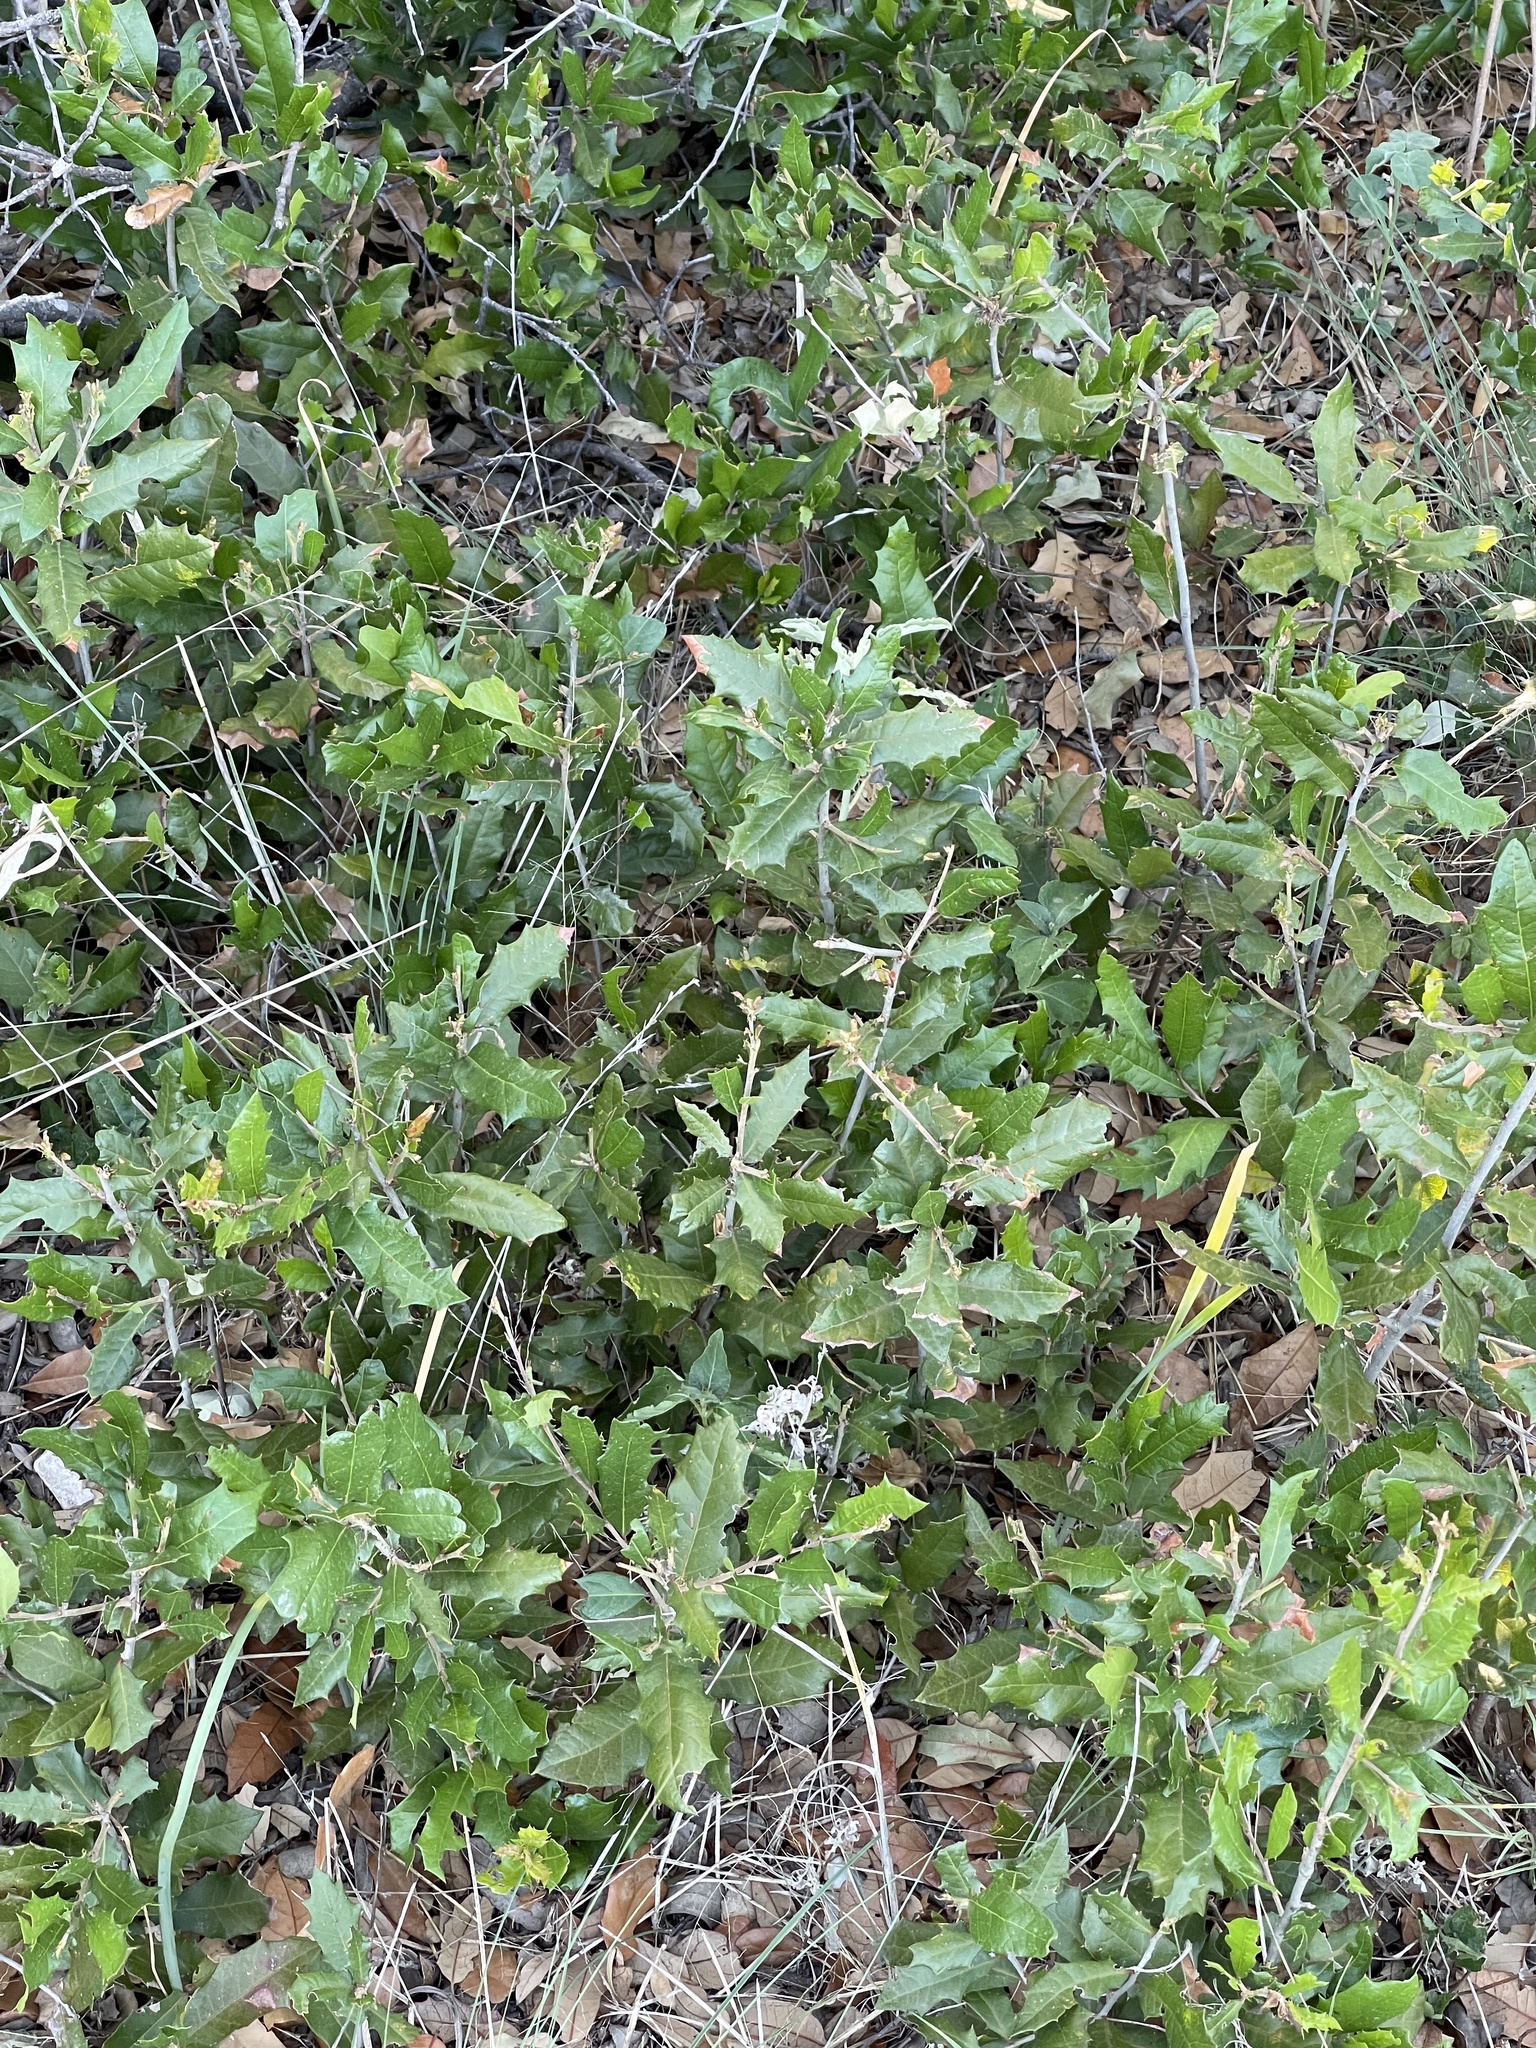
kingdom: Plantae
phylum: Tracheophyta
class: Magnoliopsida
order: Fagales
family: Fagaceae
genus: Quercus
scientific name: Quercus fusiformis
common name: Texas live oak
